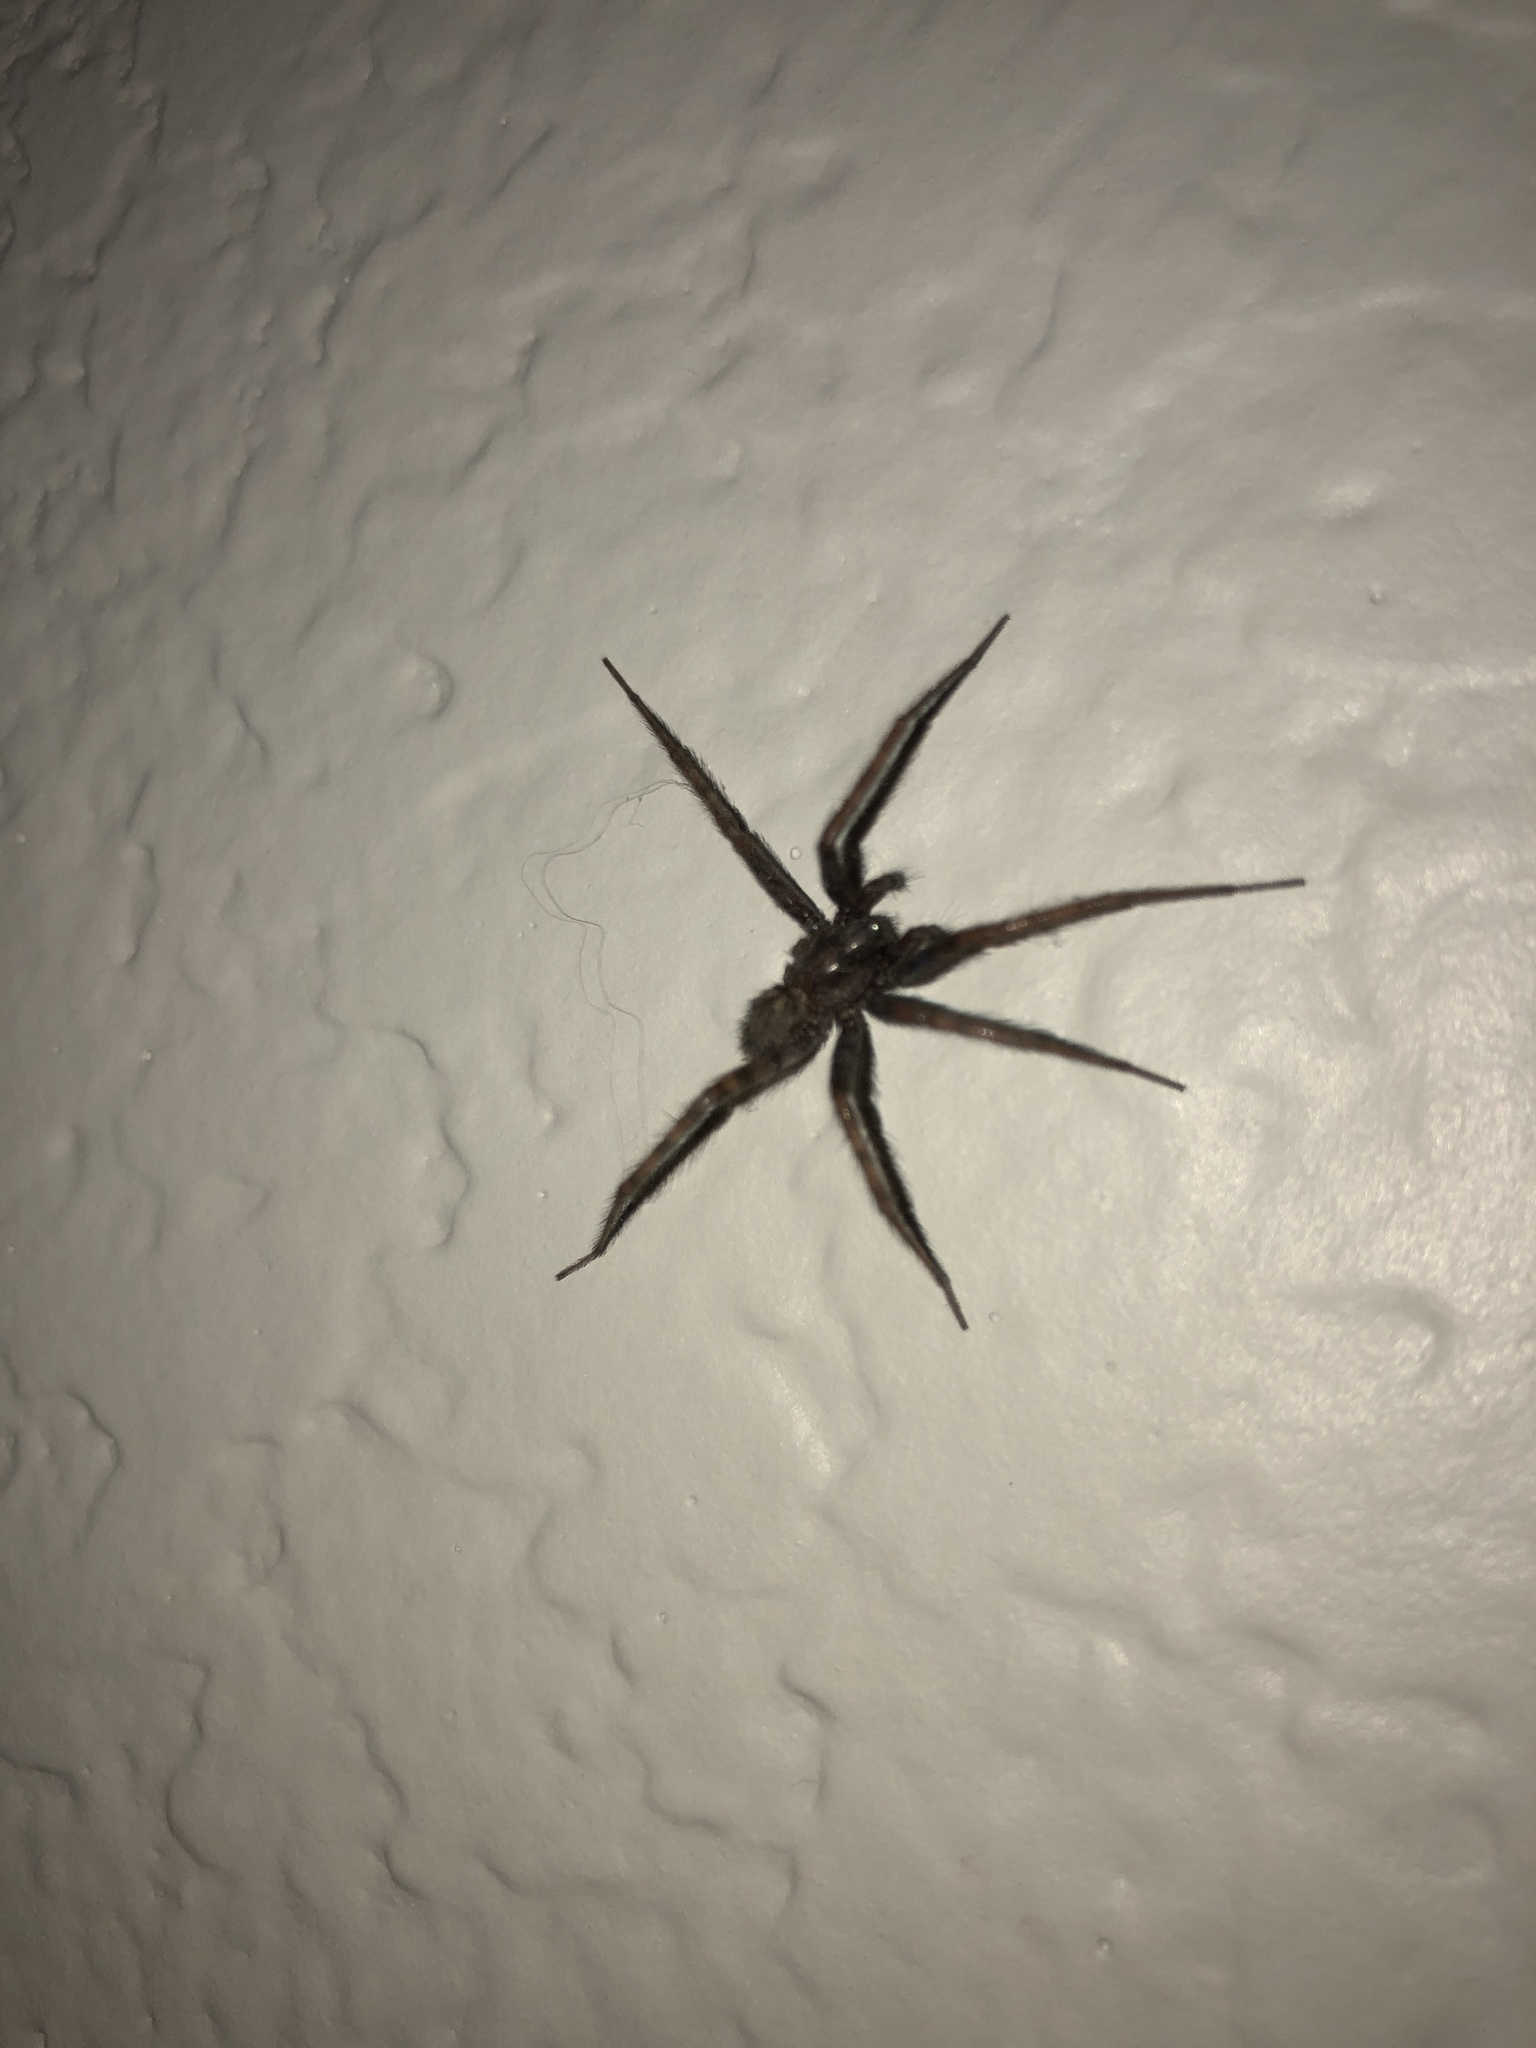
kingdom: Animalia
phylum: Arthropoda
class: Arachnida
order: Araneae
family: Agelenidae
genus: Tegenaria
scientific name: Tegenaria domestica
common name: Barn funnel weaver
